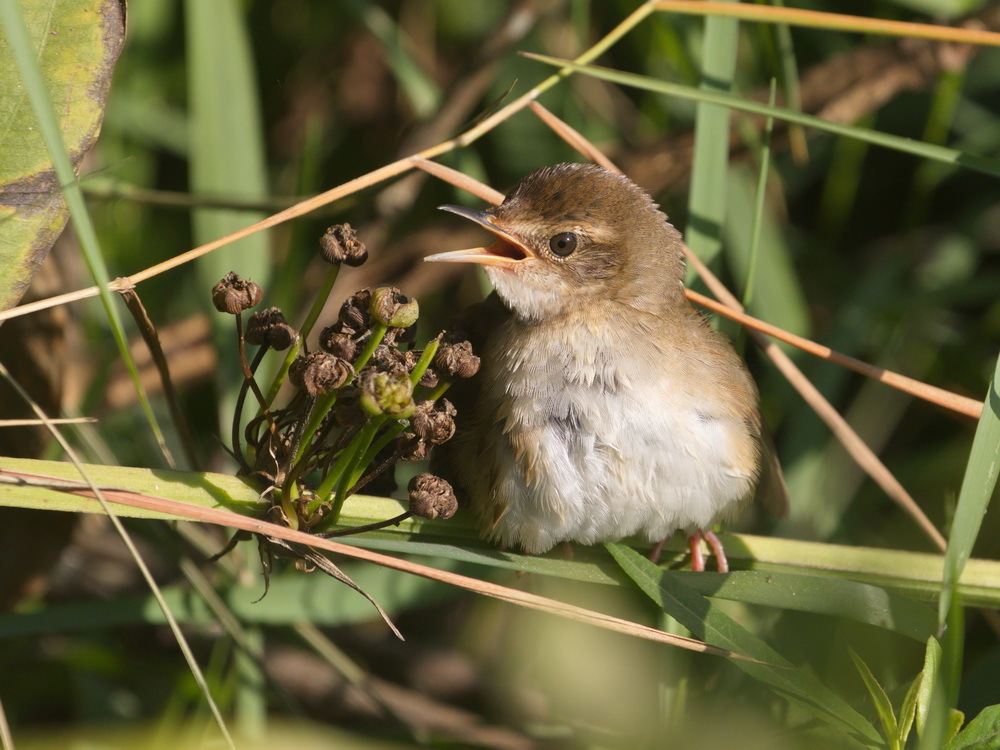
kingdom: Animalia
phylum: Chordata
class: Aves
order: Passeriformes
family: Locustellidae
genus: Locustella
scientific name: Locustella davidi
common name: Baikal bush warbler
